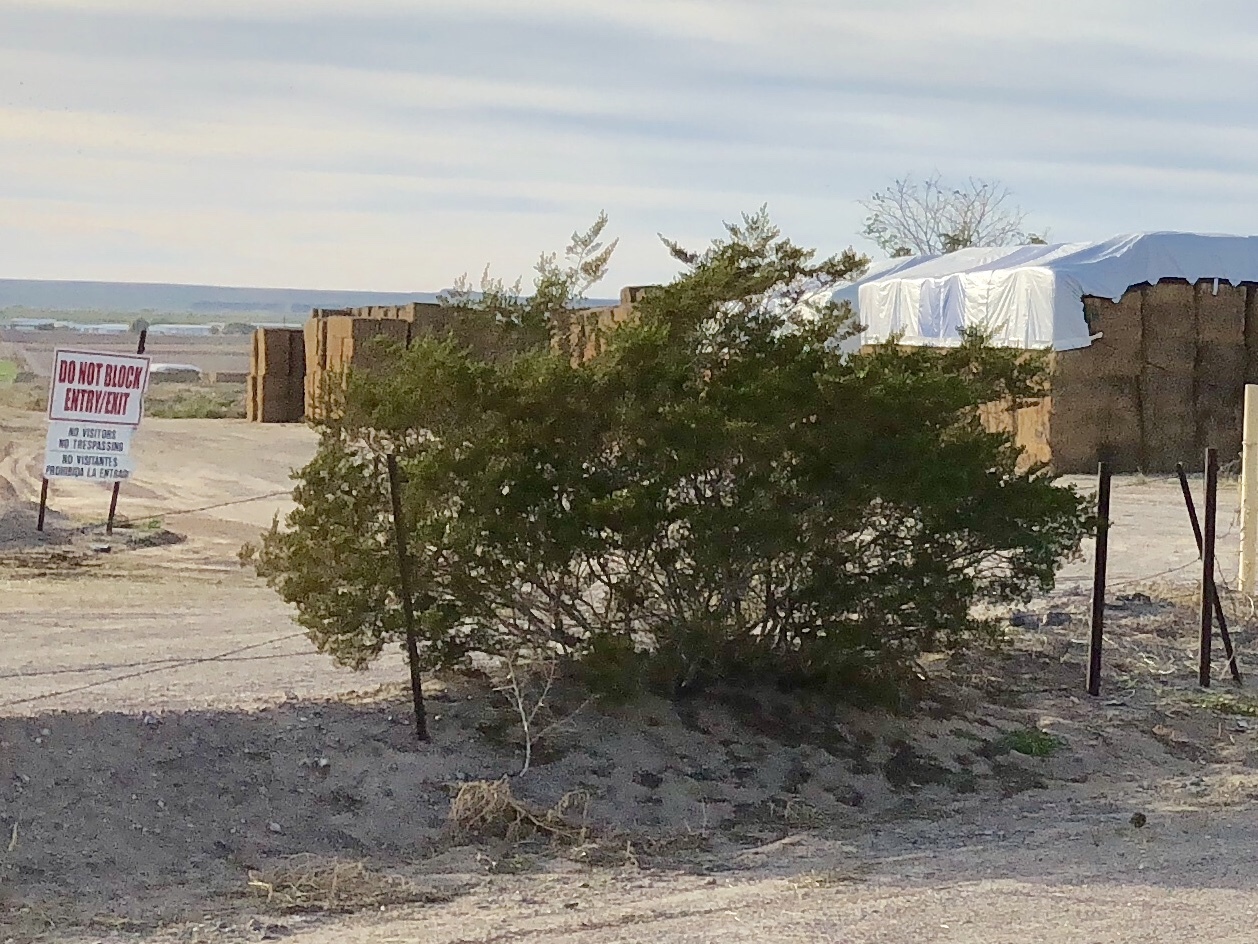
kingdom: Plantae
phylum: Tracheophyta
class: Magnoliopsida
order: Zygophyllales
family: Zygophyllaceae
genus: Larrea
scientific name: Larrea tridentata
